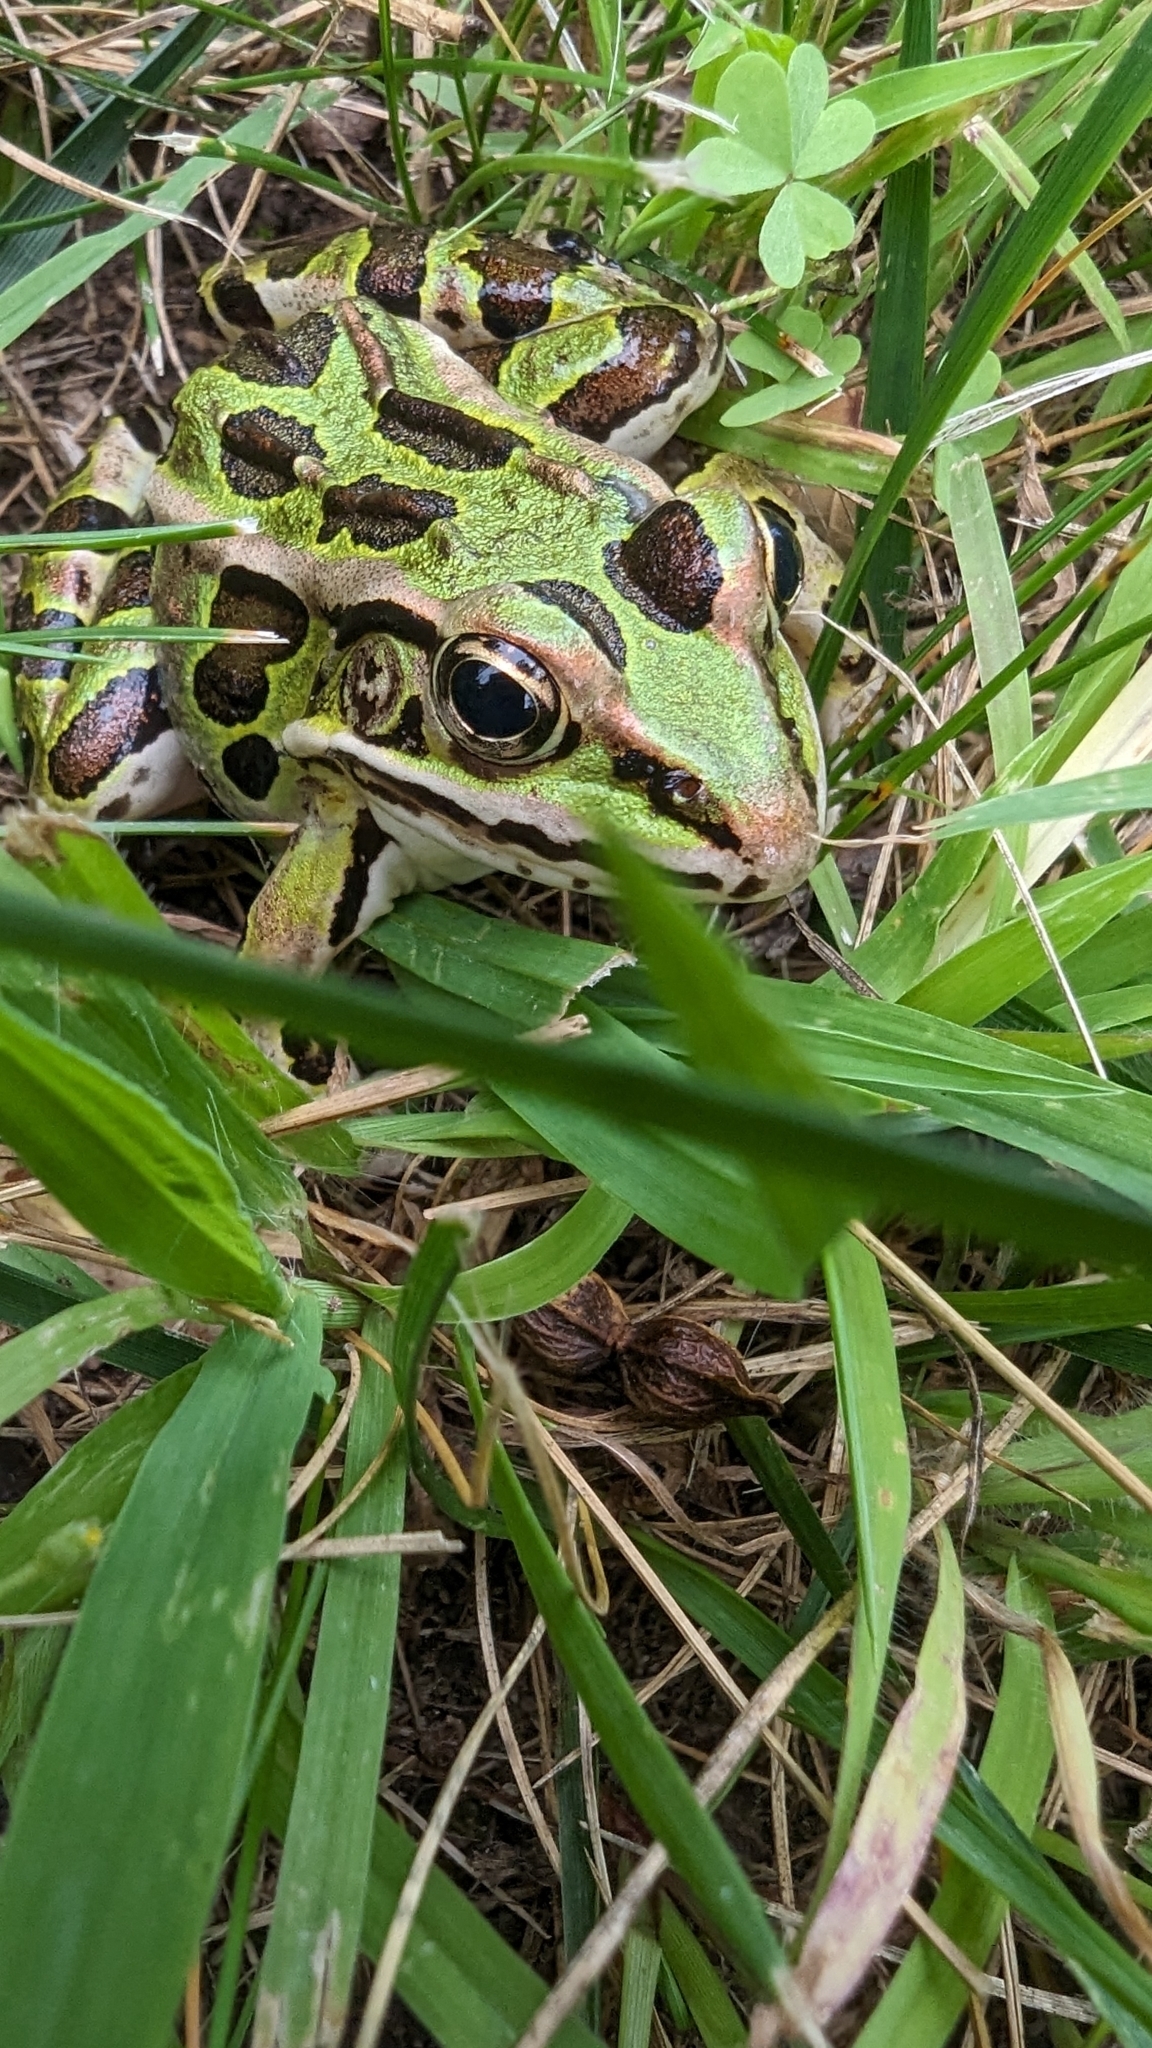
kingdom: Animalia
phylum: Chordata
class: Amphibia
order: Anura
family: Ranidae
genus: Lithobates
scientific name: Lithobates pipiens
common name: Northern leopard frog
